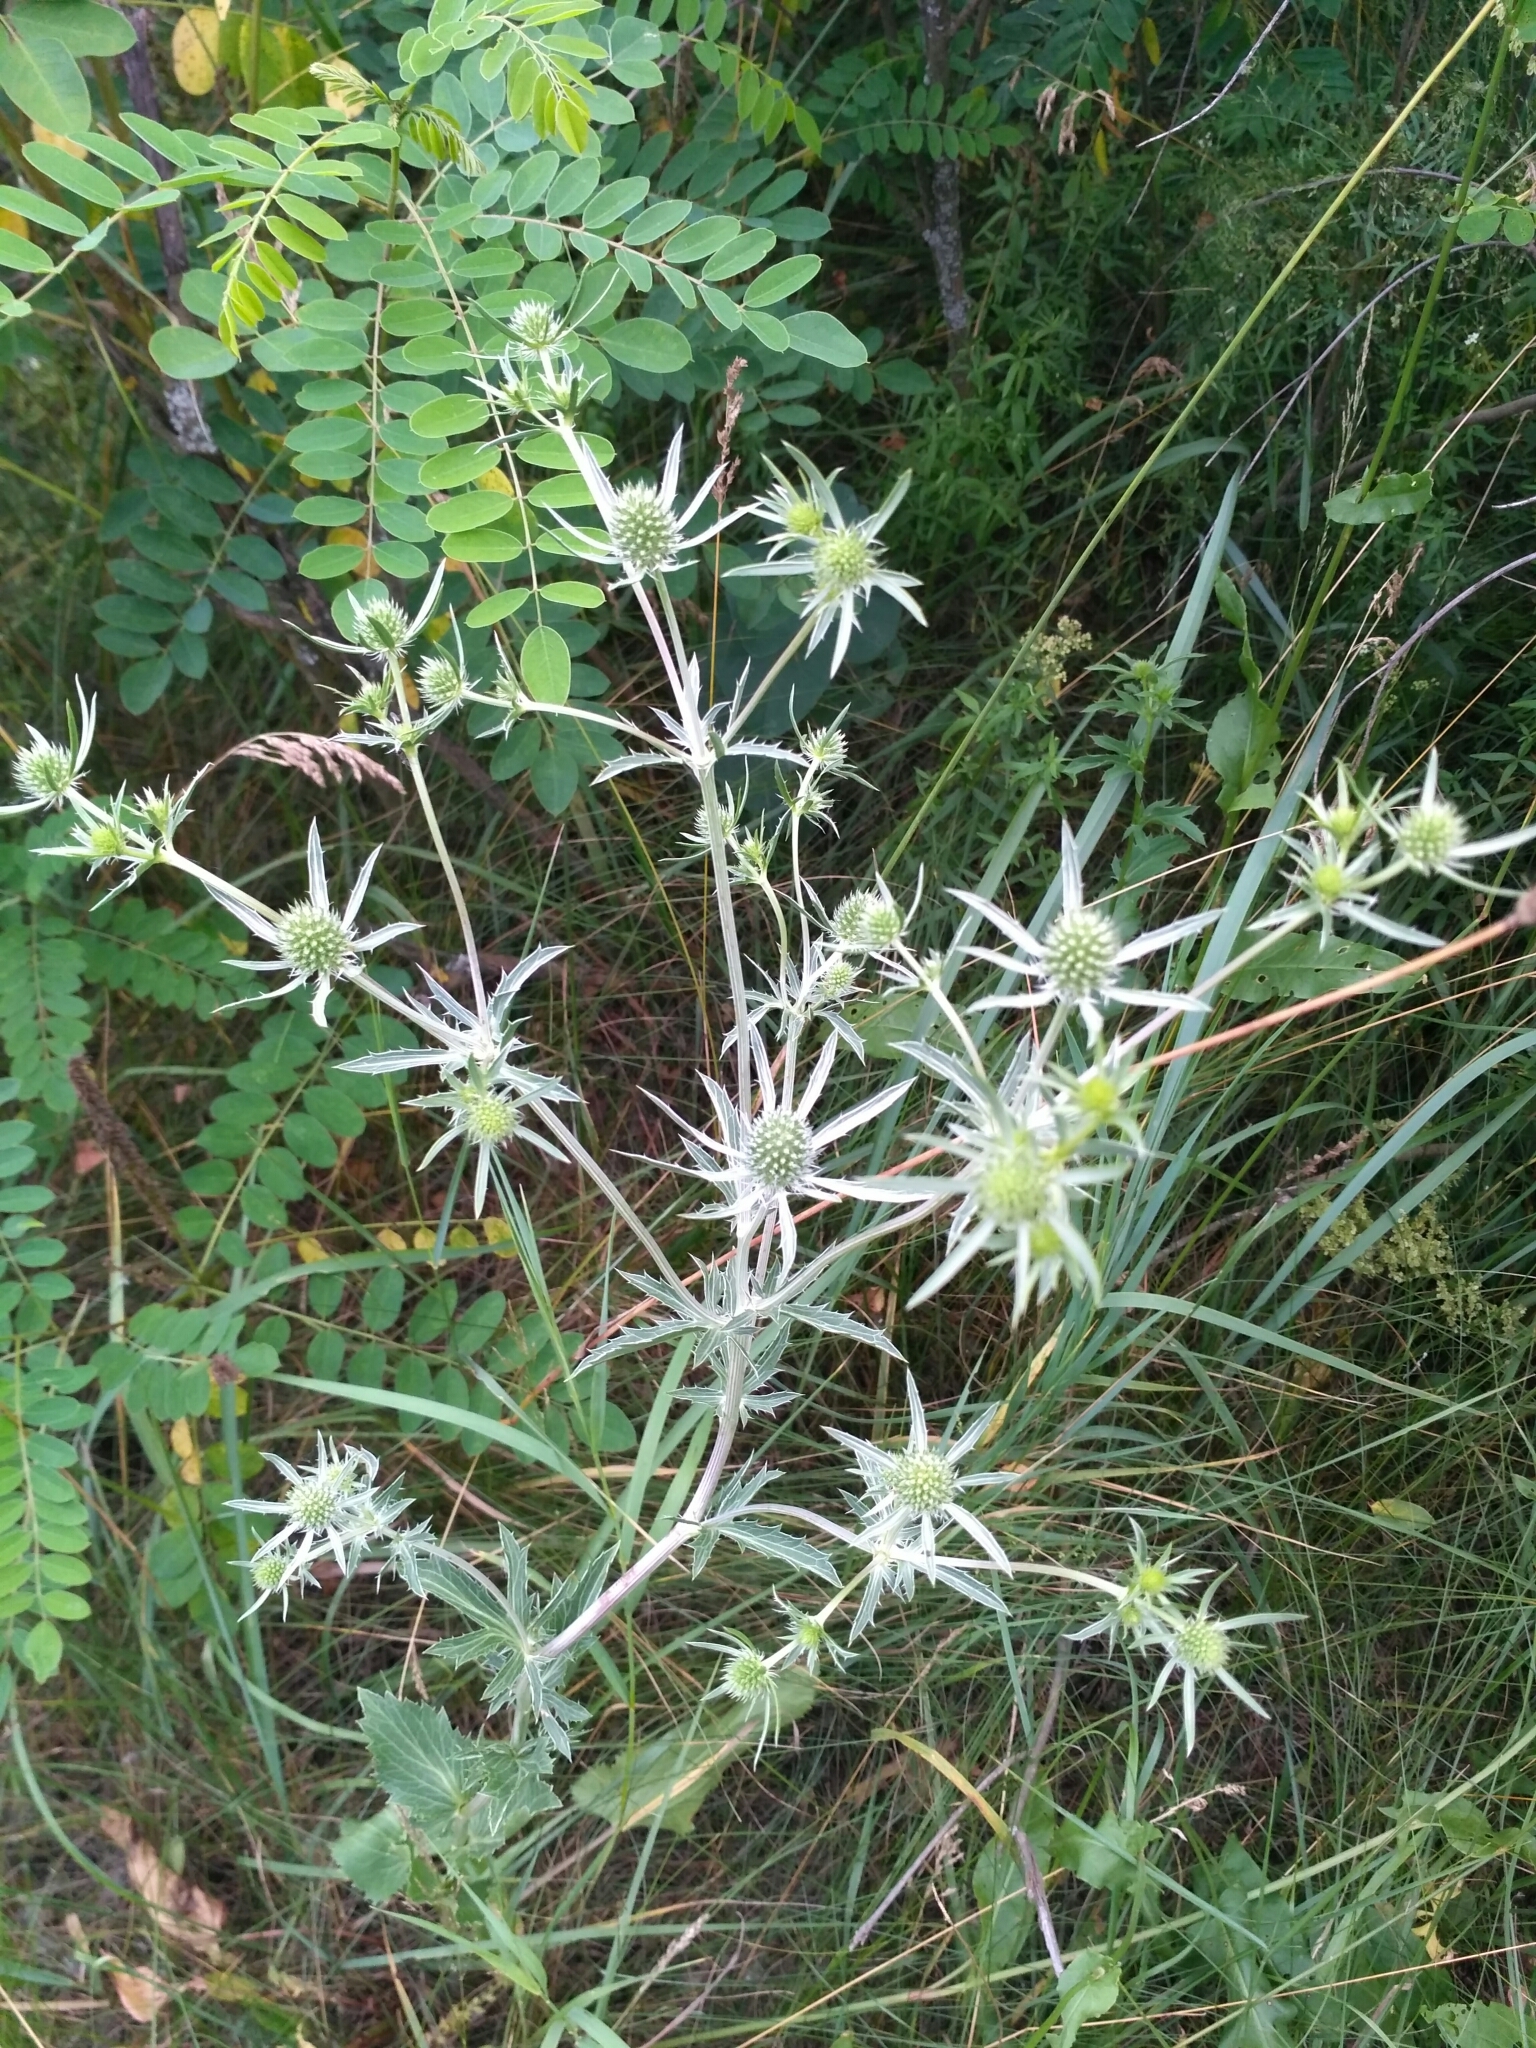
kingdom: Plantae
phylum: Tracheophyta
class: Magnoliopsida
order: Apiales
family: Apiaceae
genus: Eryngium
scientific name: Eryngium planum
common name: Blue eryngo
